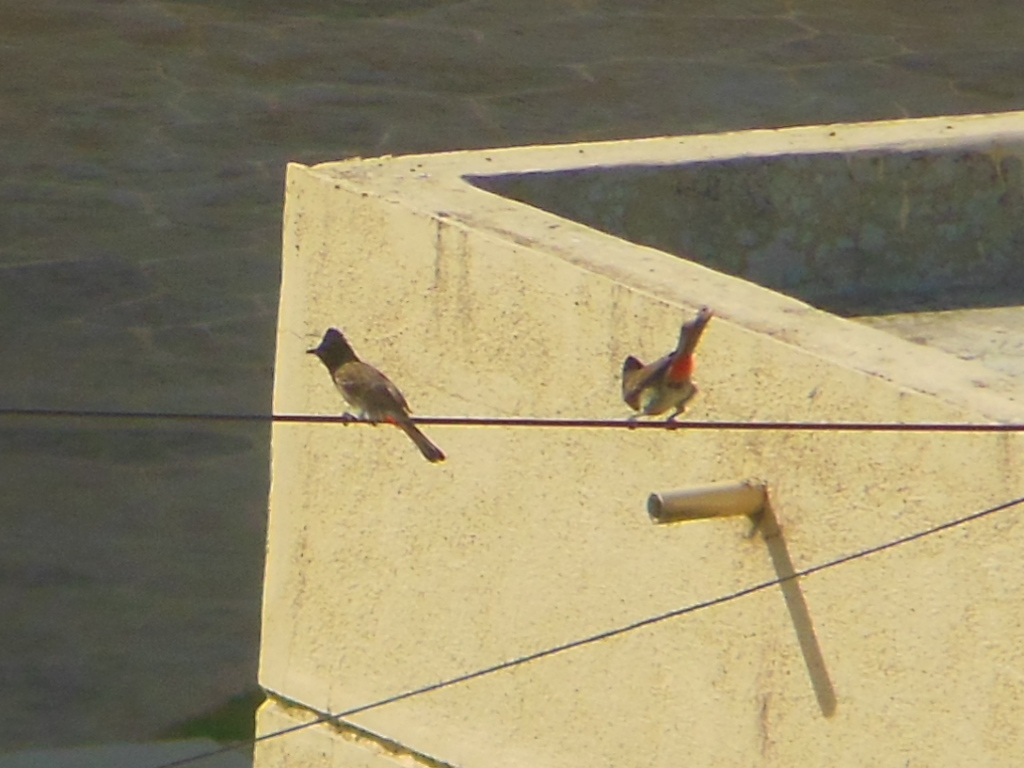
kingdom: Animalia
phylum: Chordata
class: Aves
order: Passeriformes
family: Pycnonotidae
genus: Pycnonotus
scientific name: Pycnonotus cafer
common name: Red-vented bulbul
